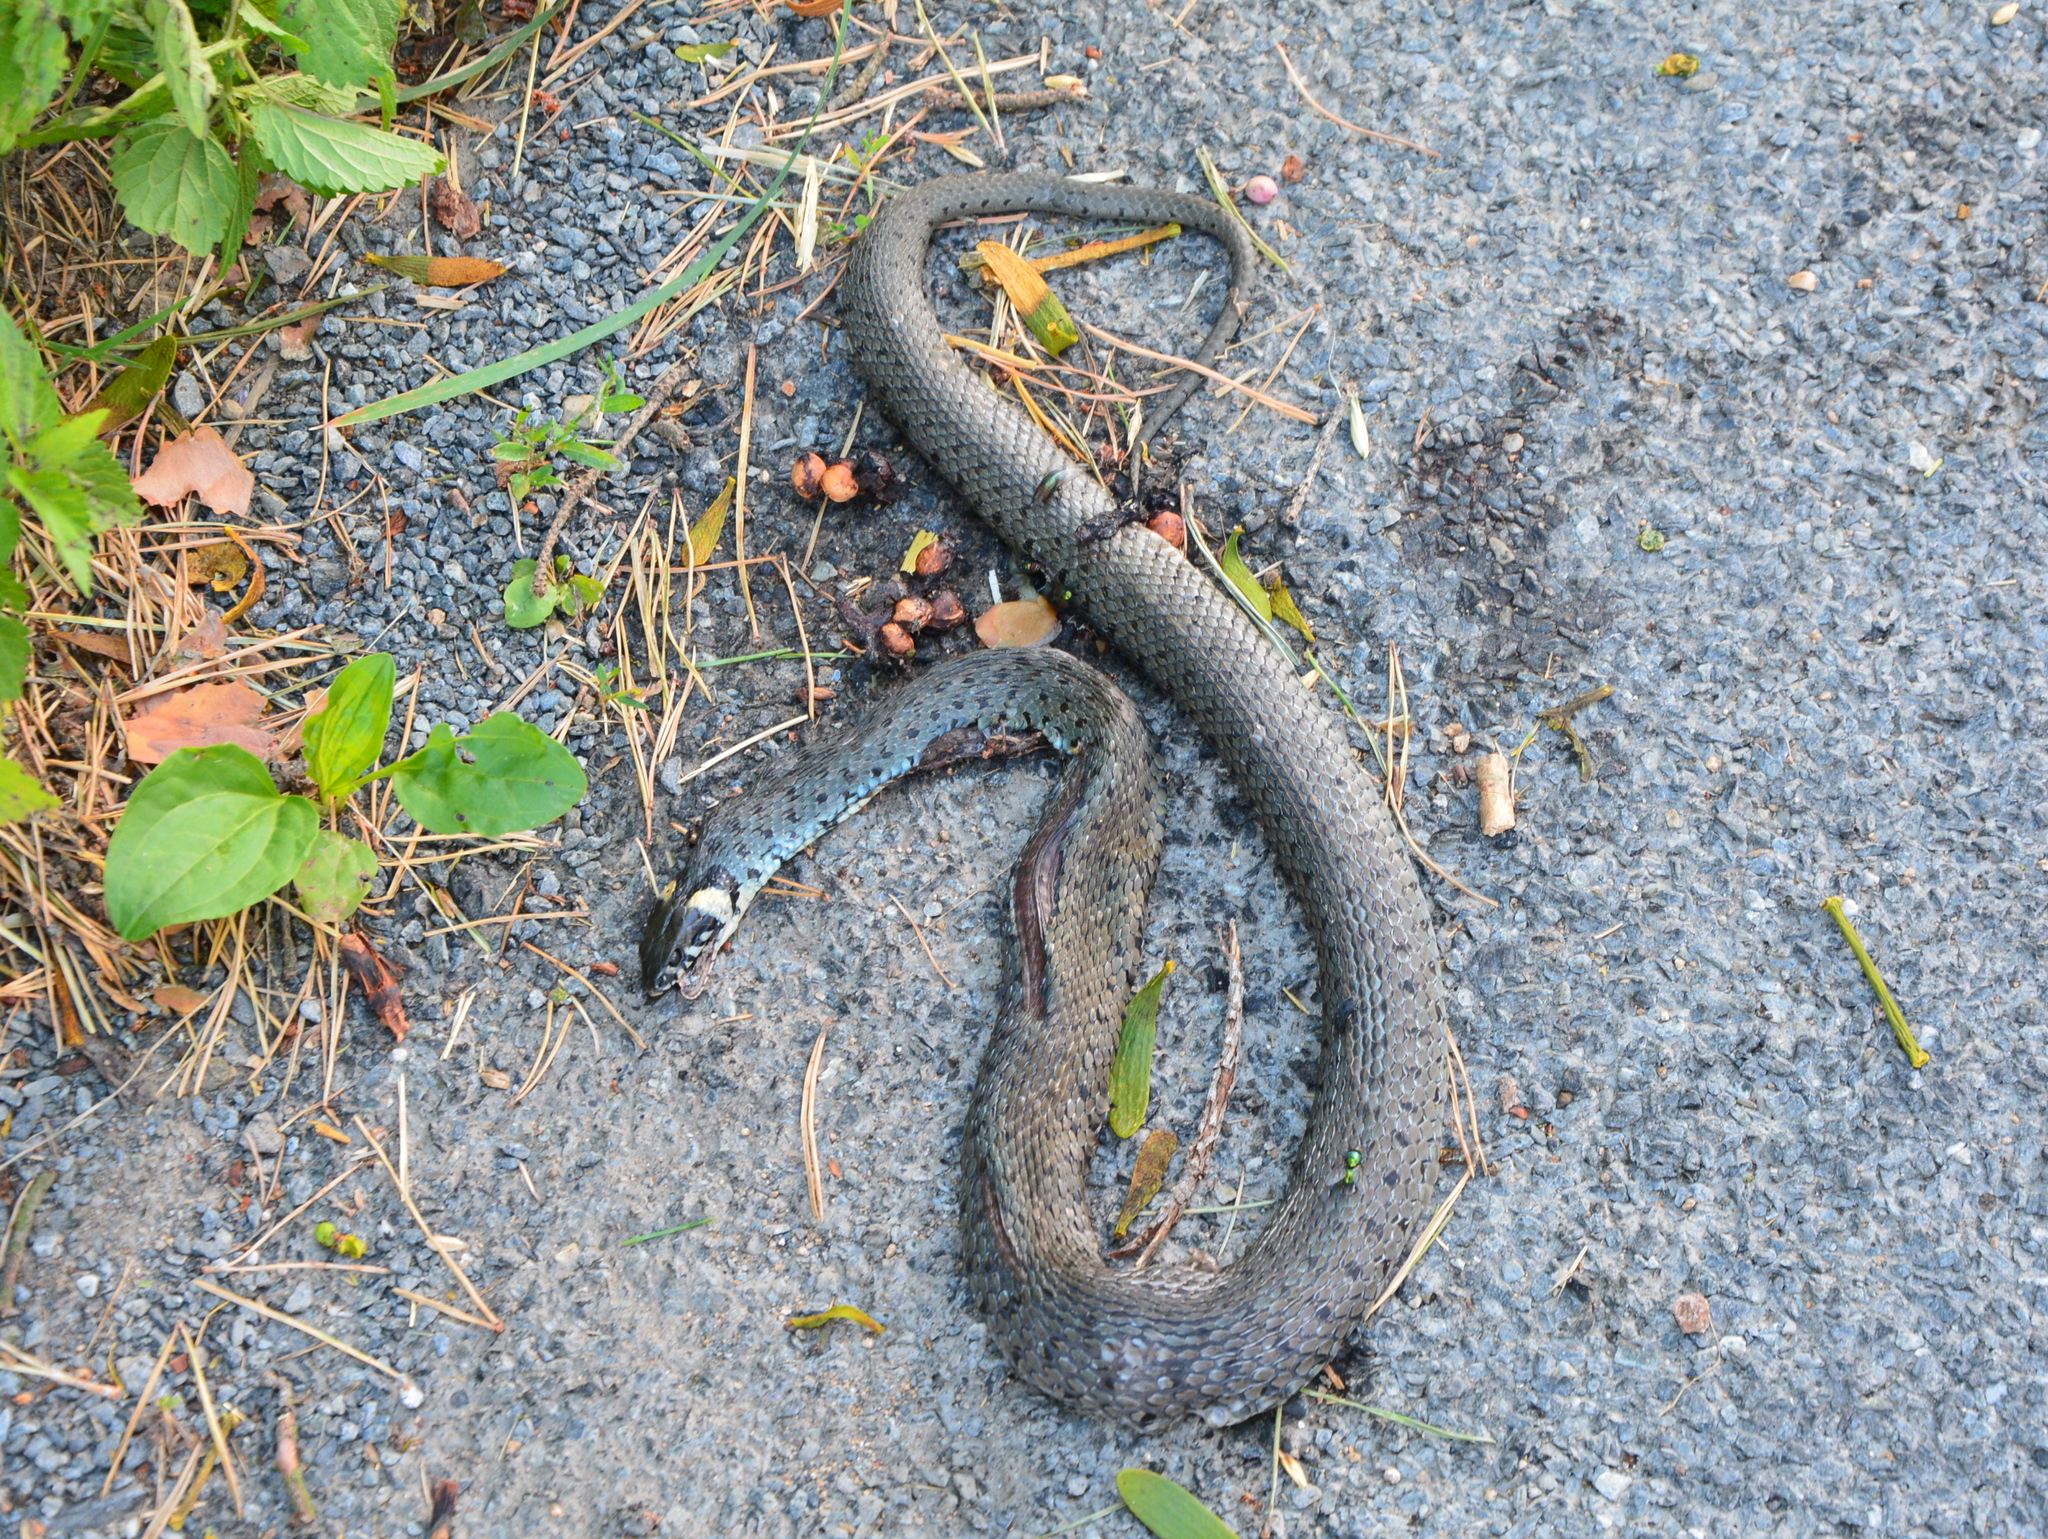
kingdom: Animalia
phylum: Chordata
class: Squamata
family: Colubridae
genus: Natrix
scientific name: Natrix natrix
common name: Grass snake
